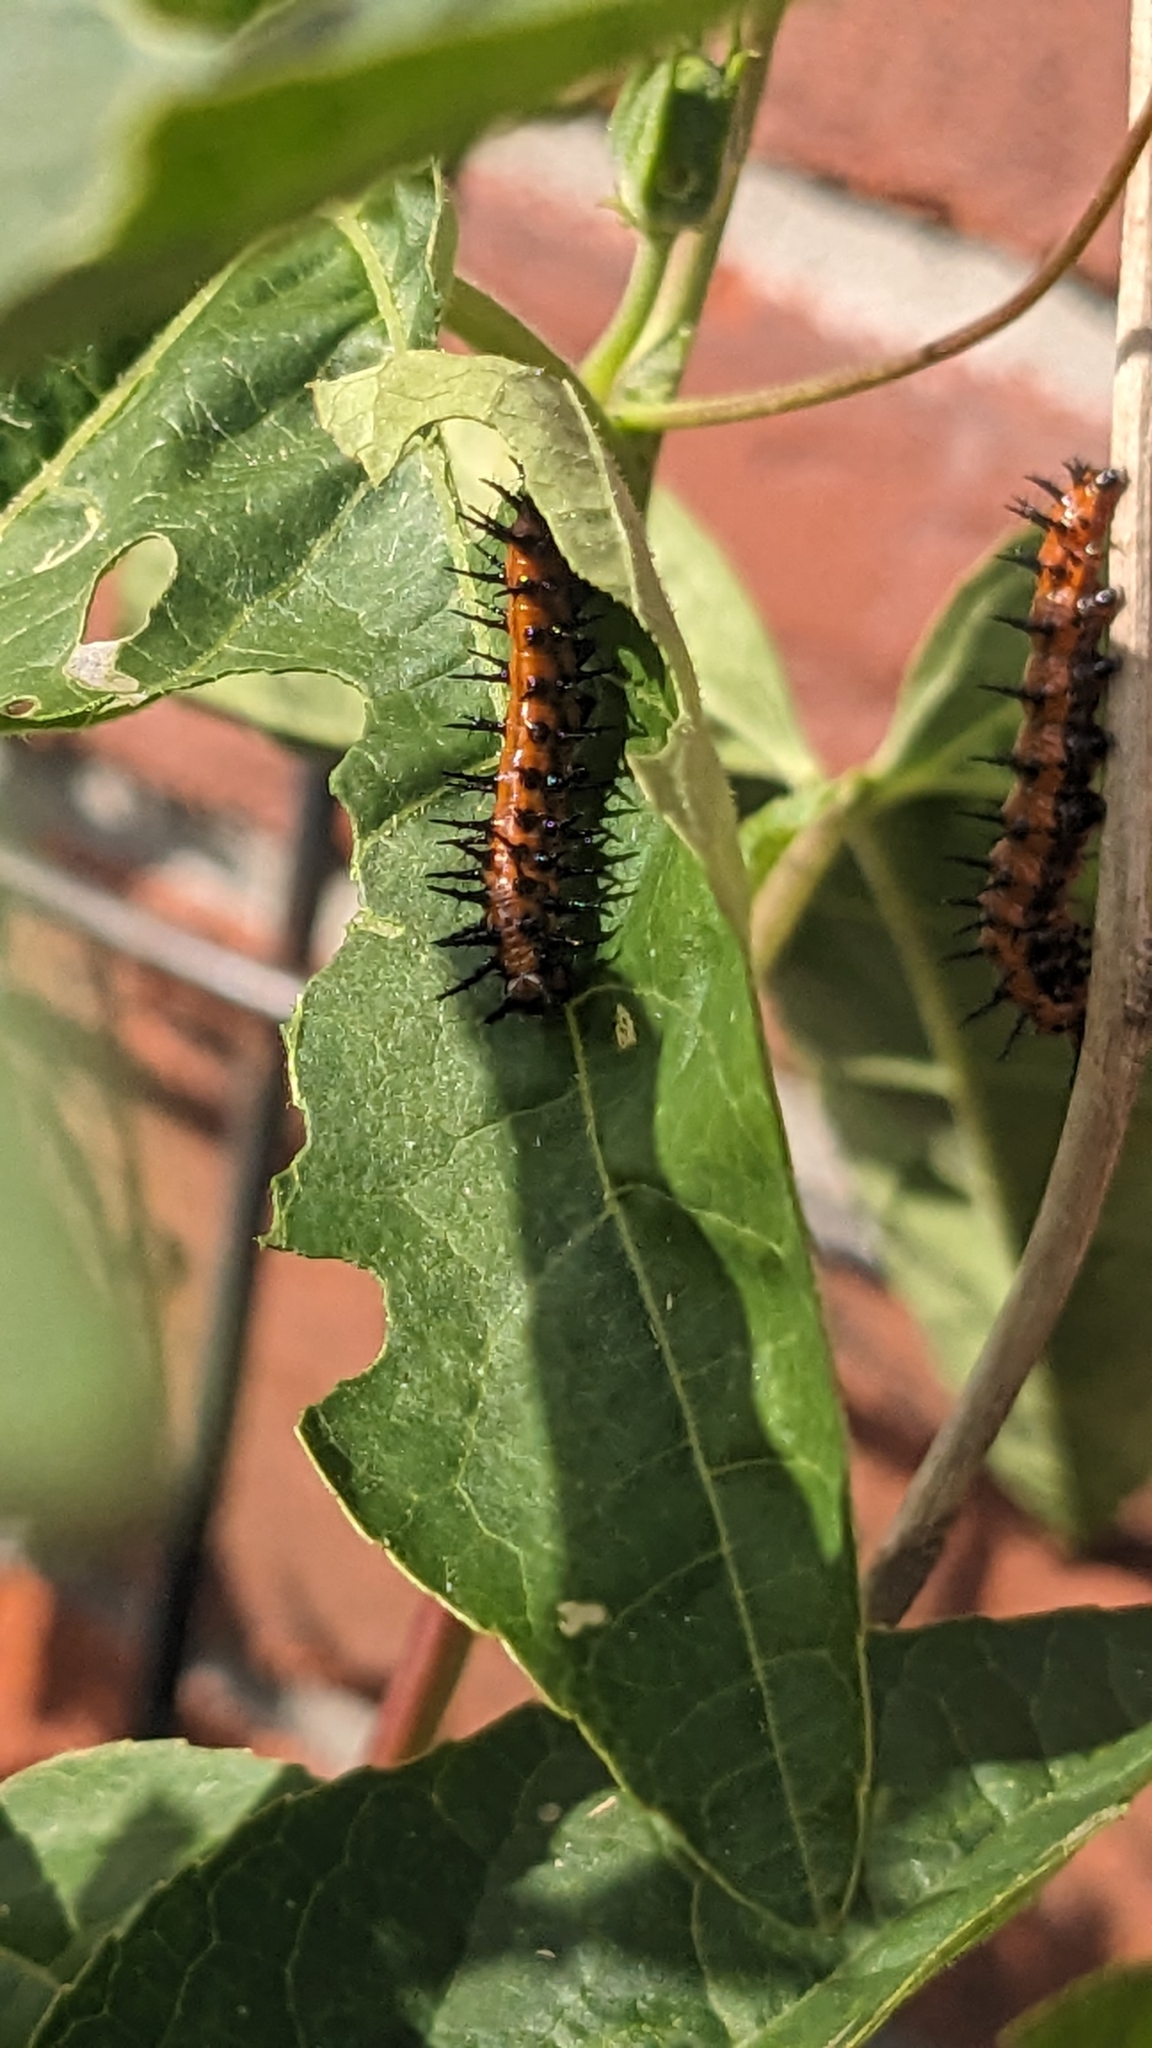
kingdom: Animalia
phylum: Arthropoda
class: Insecta
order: Lepidoptera
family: Nymphalidae
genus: Dione
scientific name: Dione vanillae
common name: Gulf fritillary
